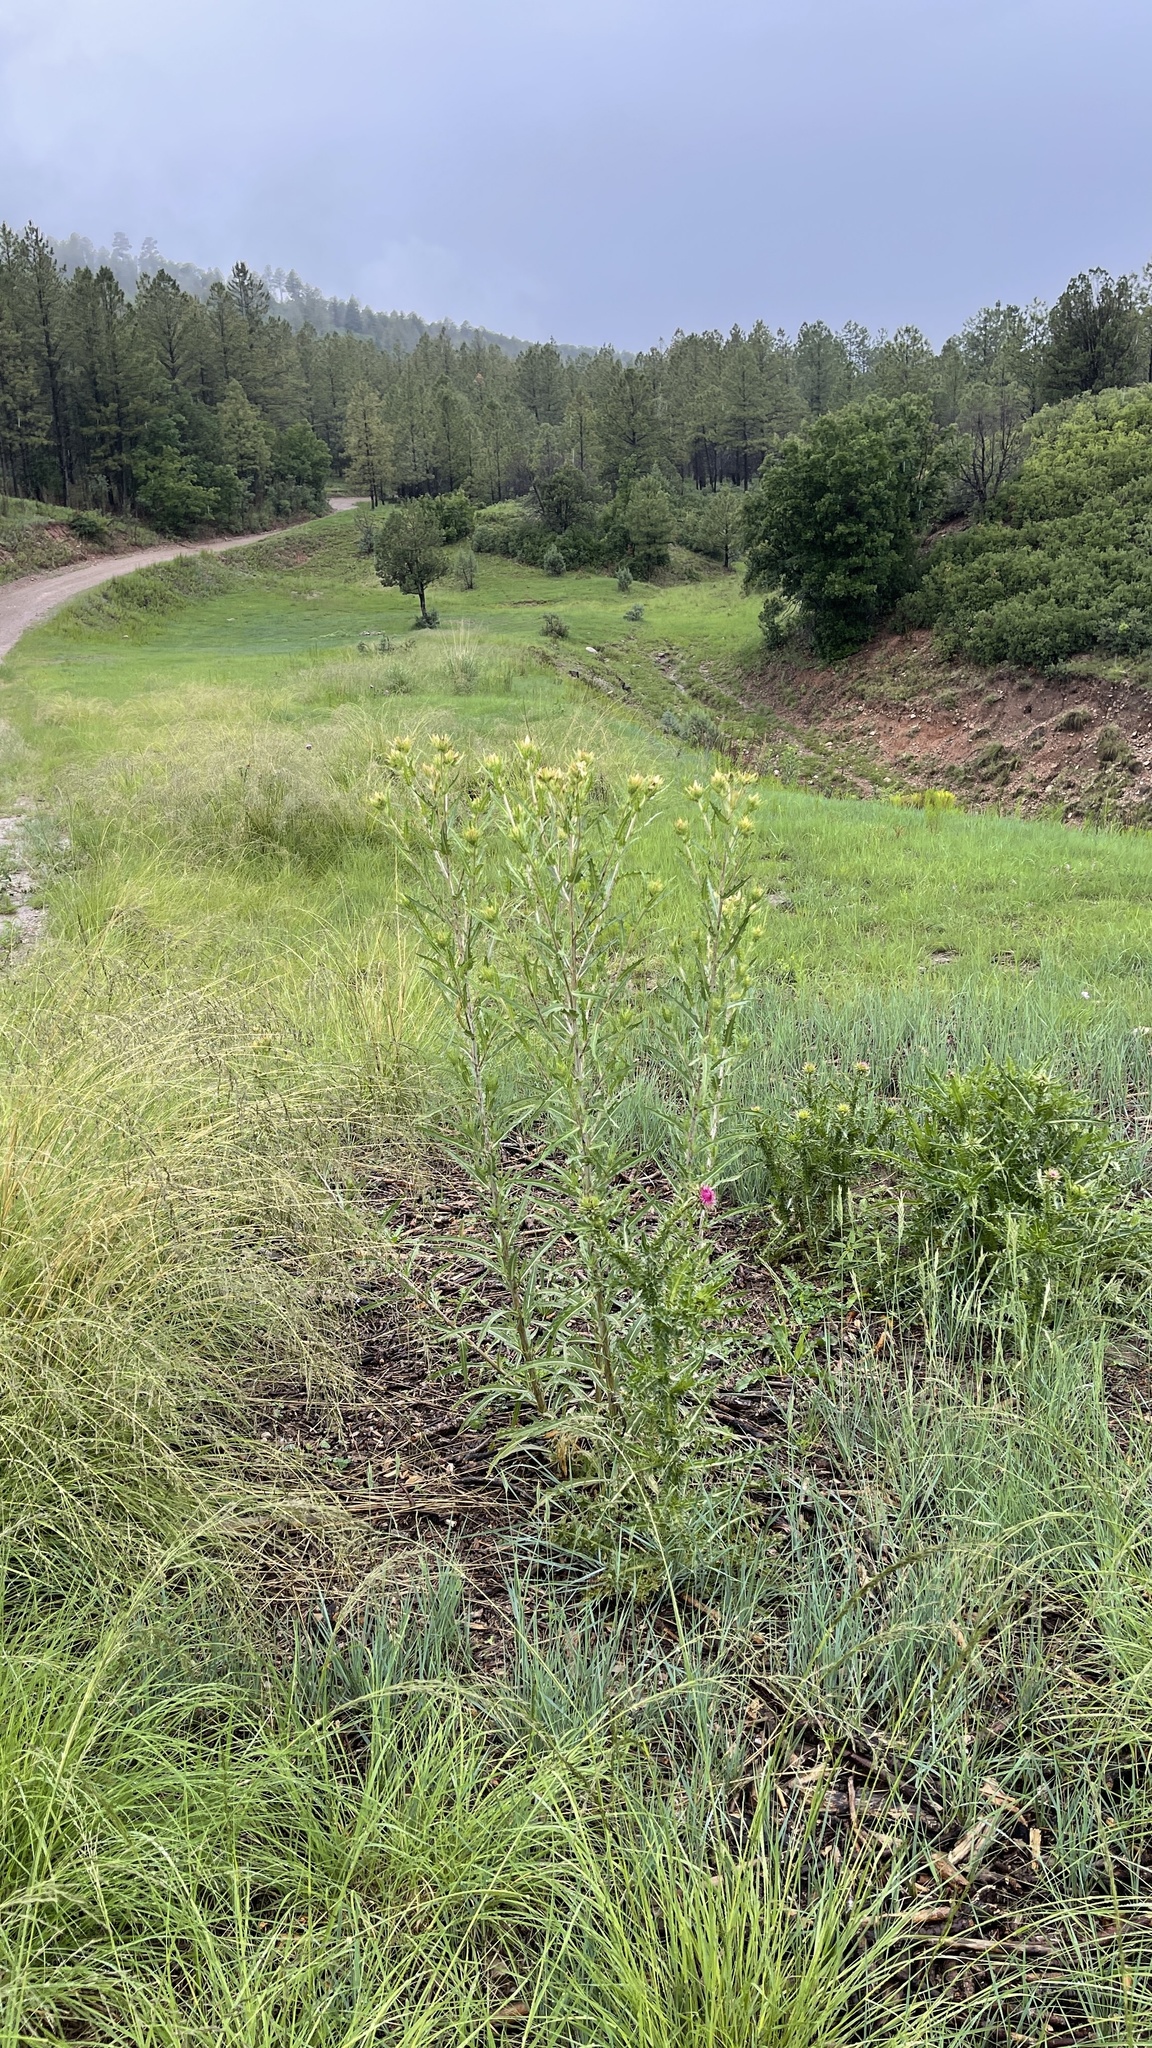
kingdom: Plantae
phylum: Tracheophyta
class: Magnoliopsida
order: Cornales
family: Loasaceae
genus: Mentzelia
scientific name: Mentzelia rusbyi
